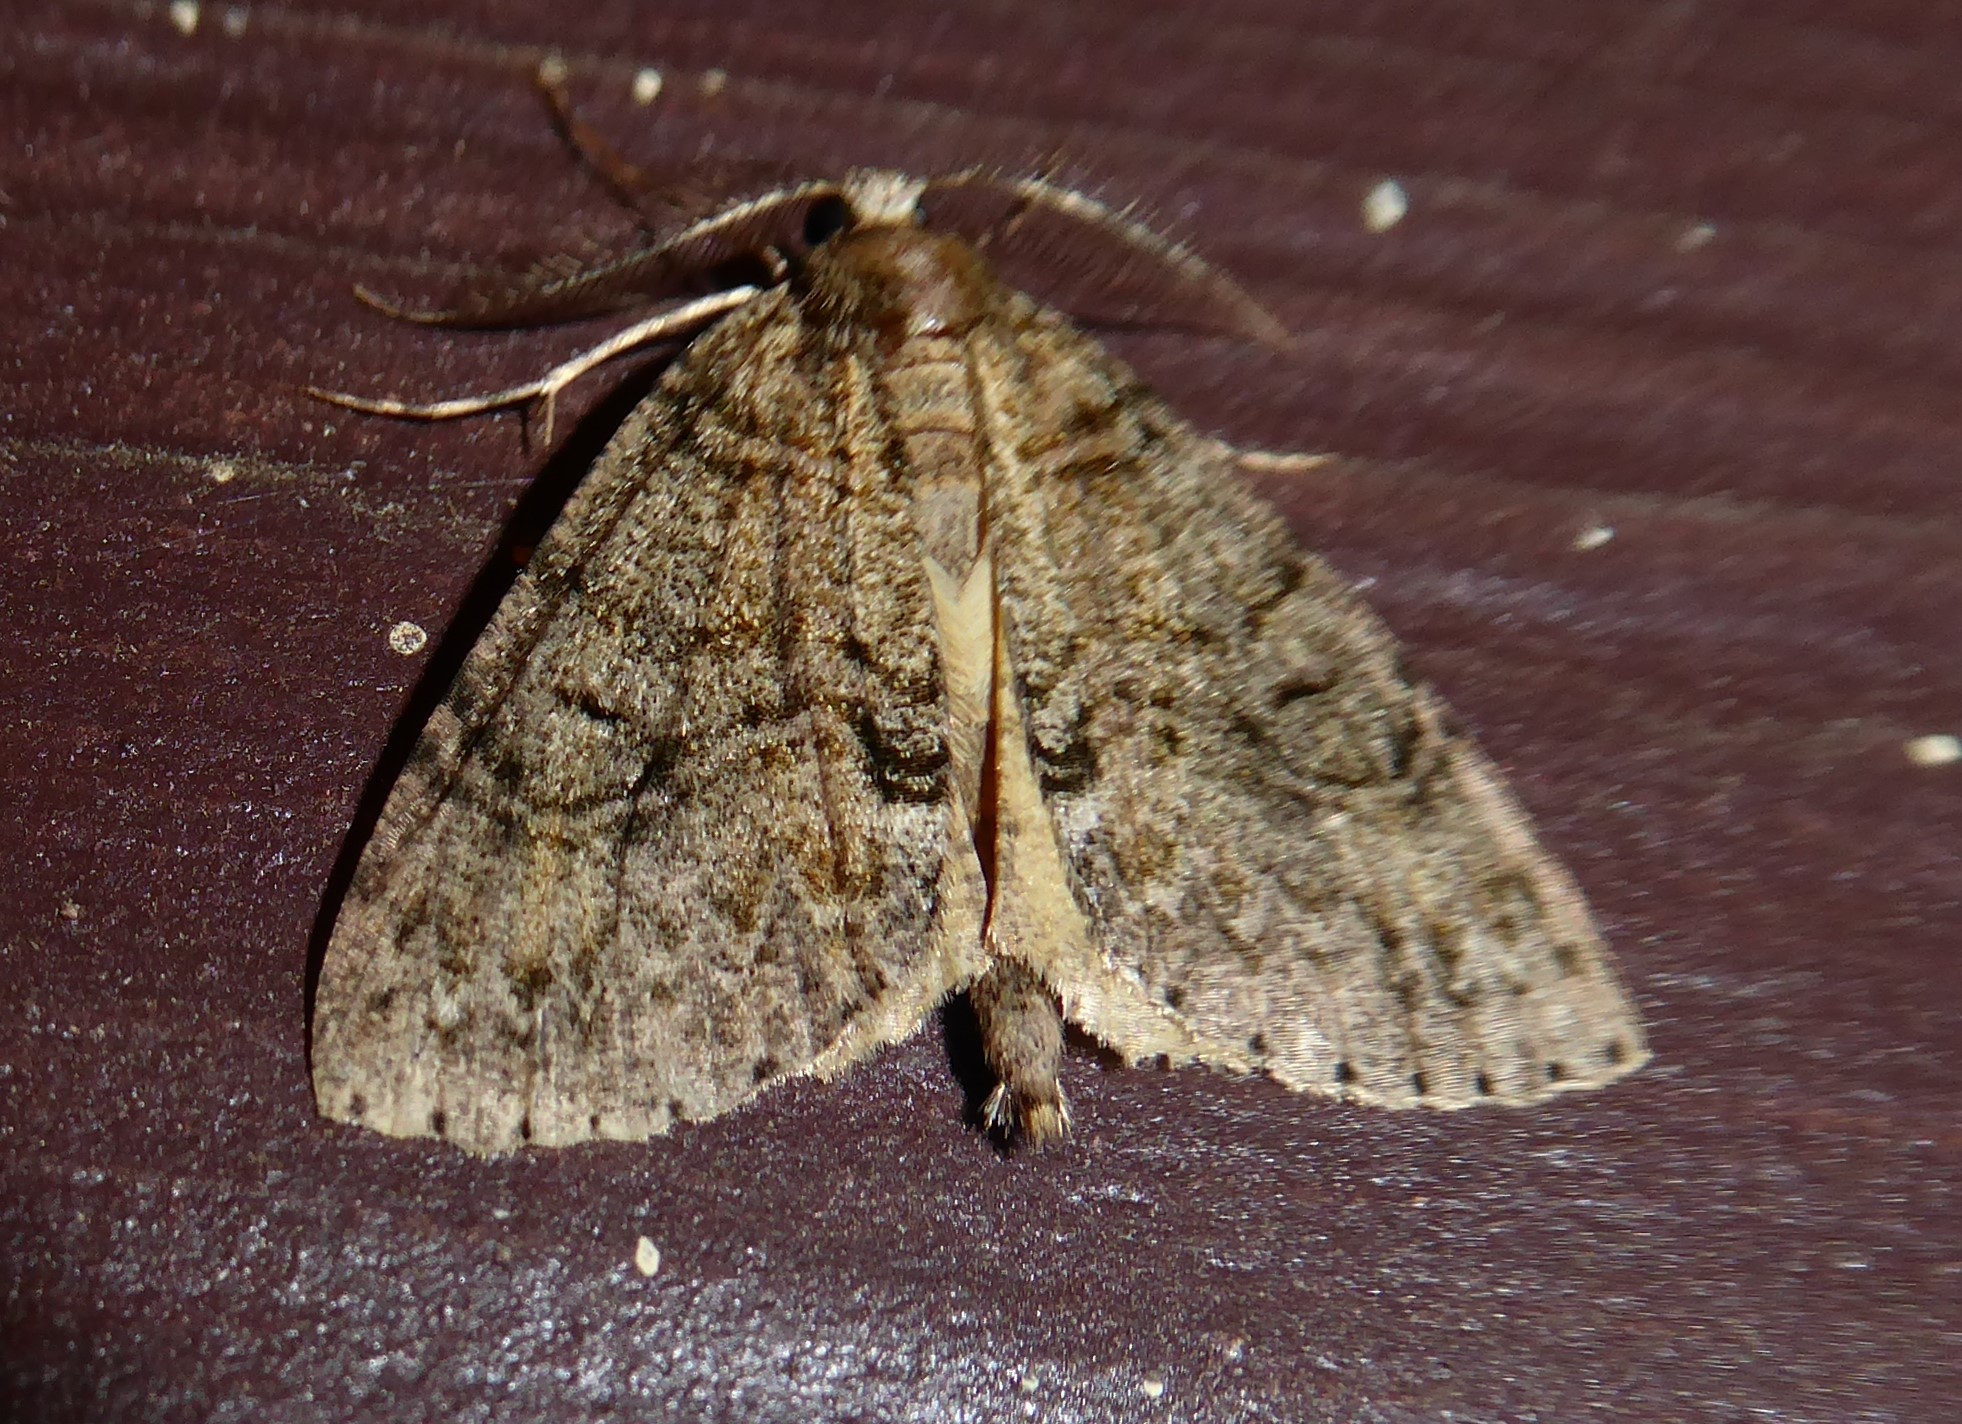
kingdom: Animalia
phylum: Arthropoda
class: Insecta
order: Lepidoptera
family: Geometridae
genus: Pseudocoremia
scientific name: Pseudocoremia suavis
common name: Common forest looper
